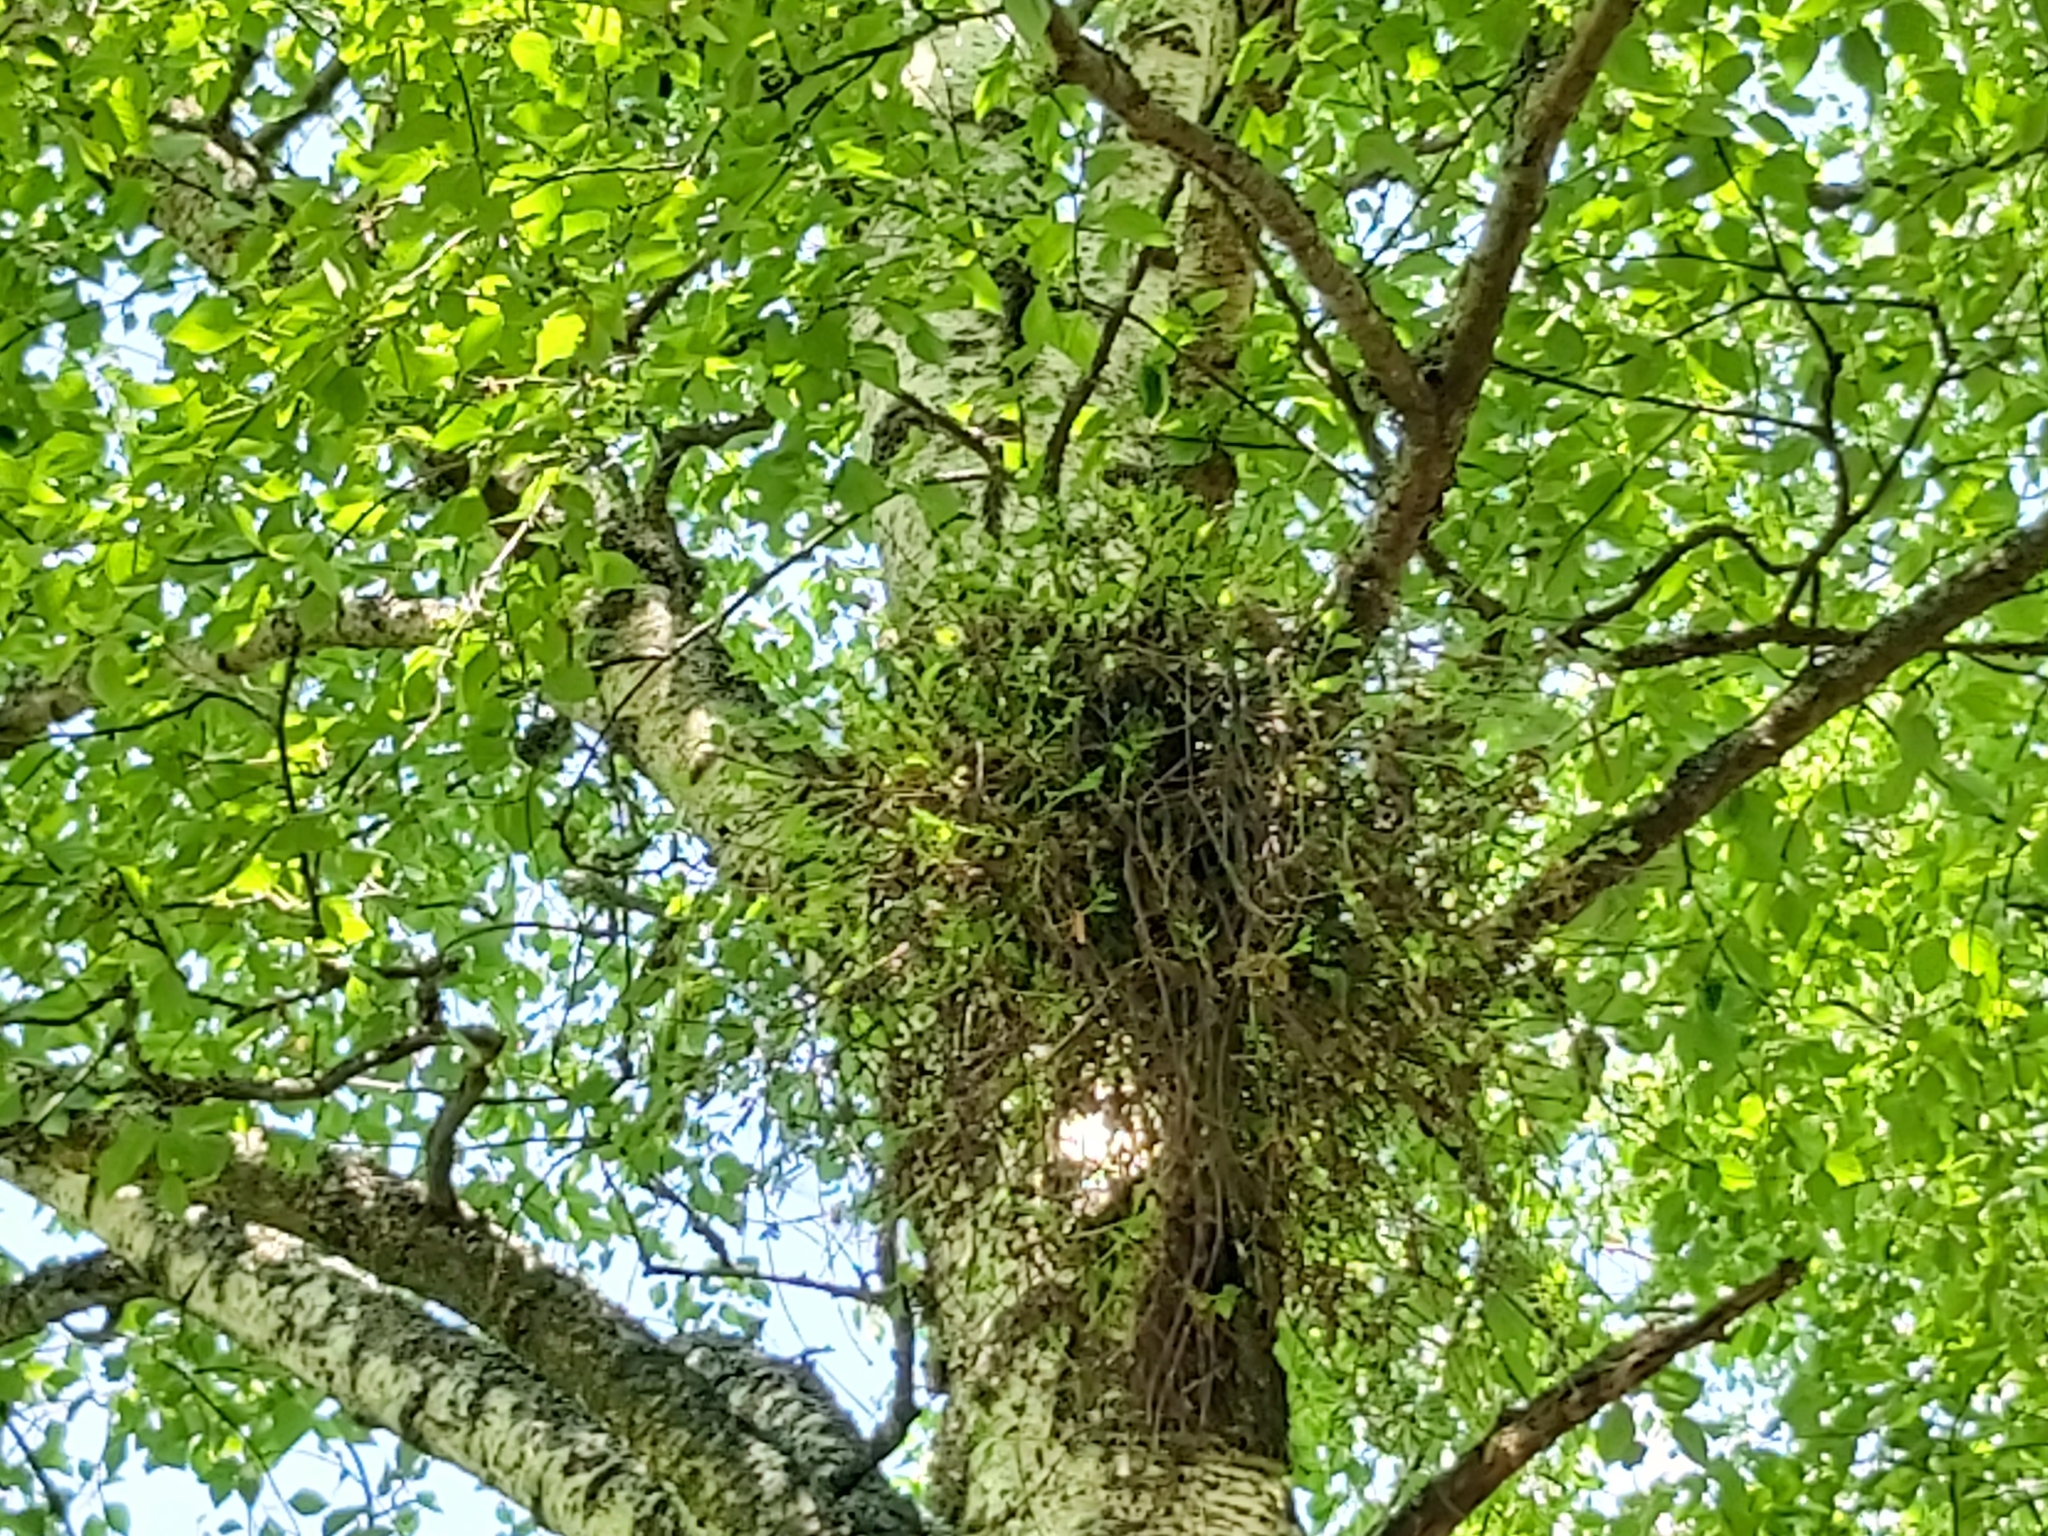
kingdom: Fungi
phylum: Ascomycota
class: Taphrinomycetes
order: Taphrinales
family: Taphrinaceae
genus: Taphrina
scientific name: Taphrina betulina
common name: Birch besom
